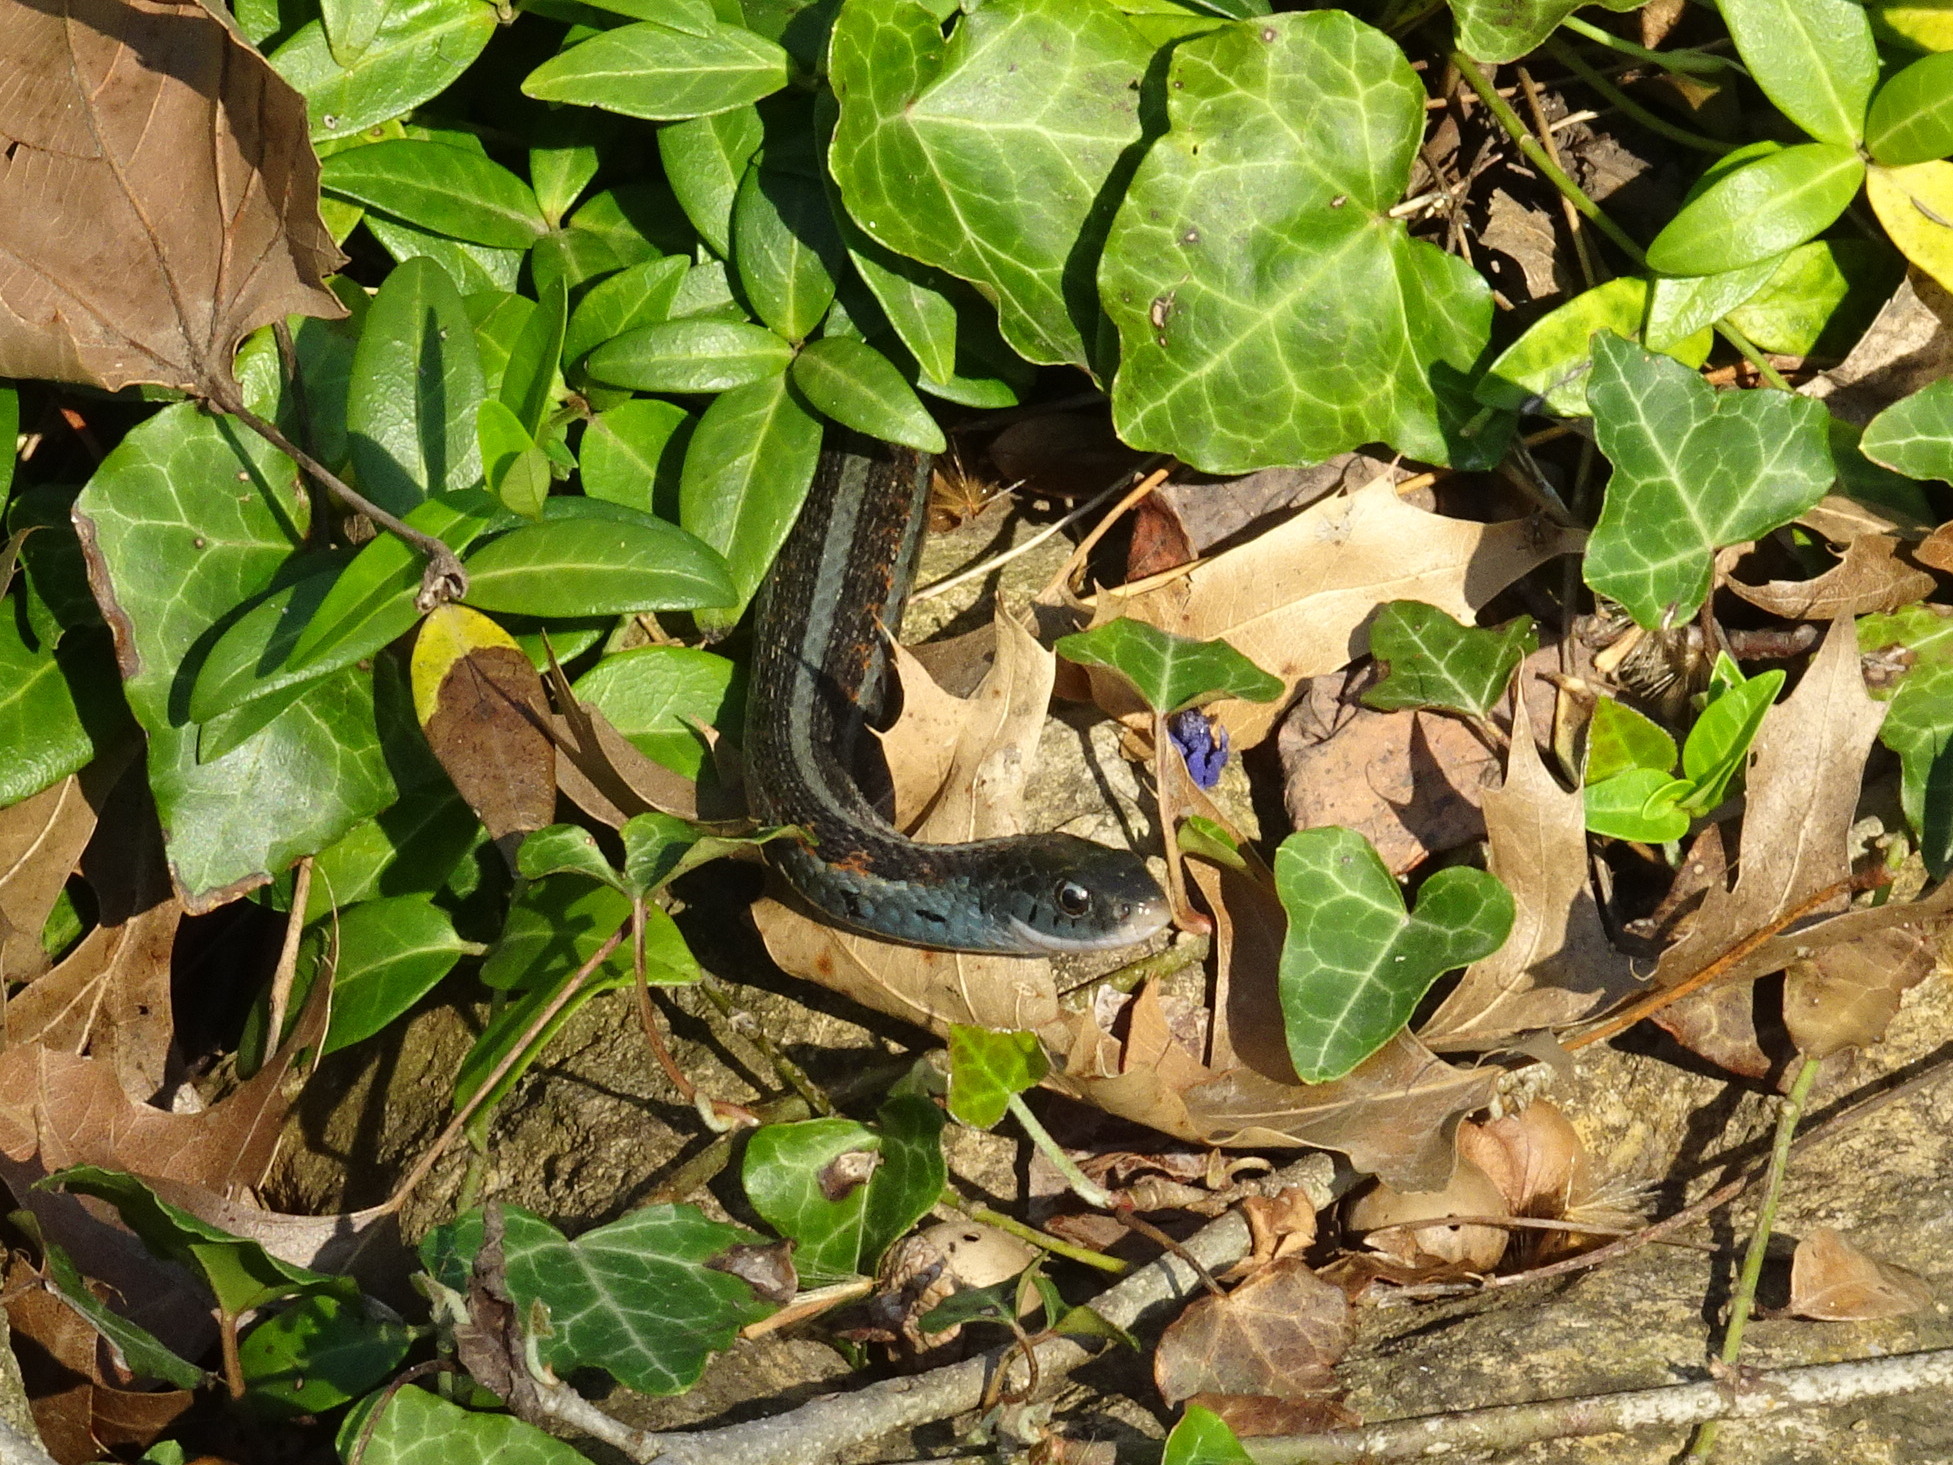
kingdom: Animalia
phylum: Chordata
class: Squamata
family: Colubridae
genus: Thamnophis
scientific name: Thamnophis sirtalis
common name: Common garter snake
